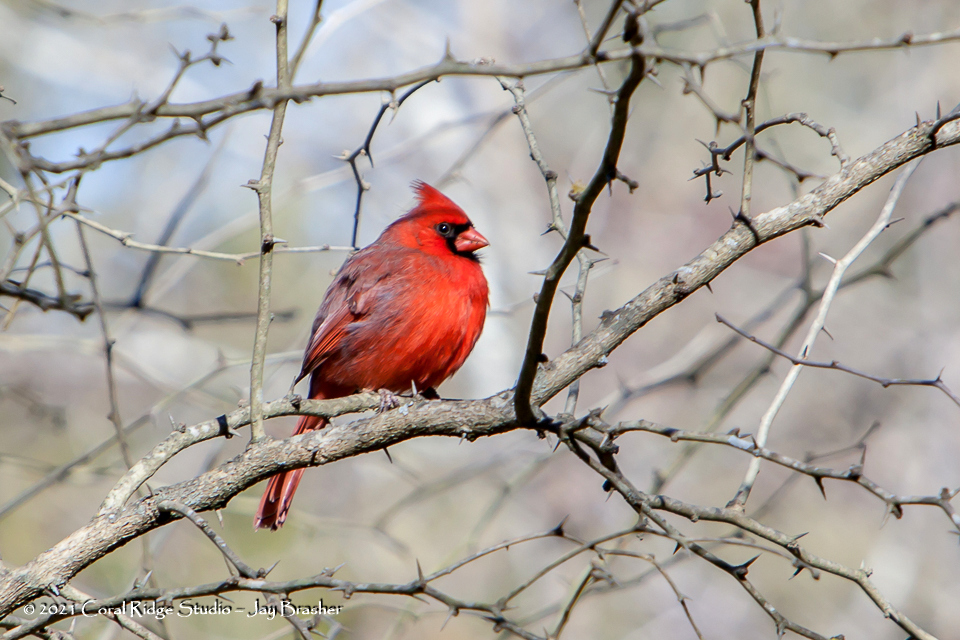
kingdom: Animalia
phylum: Chordata
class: Aves
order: Passeriformes
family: Cardinalidae
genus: Cardinalis
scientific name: Cardinalis cardinalis
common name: Northern cardinal
